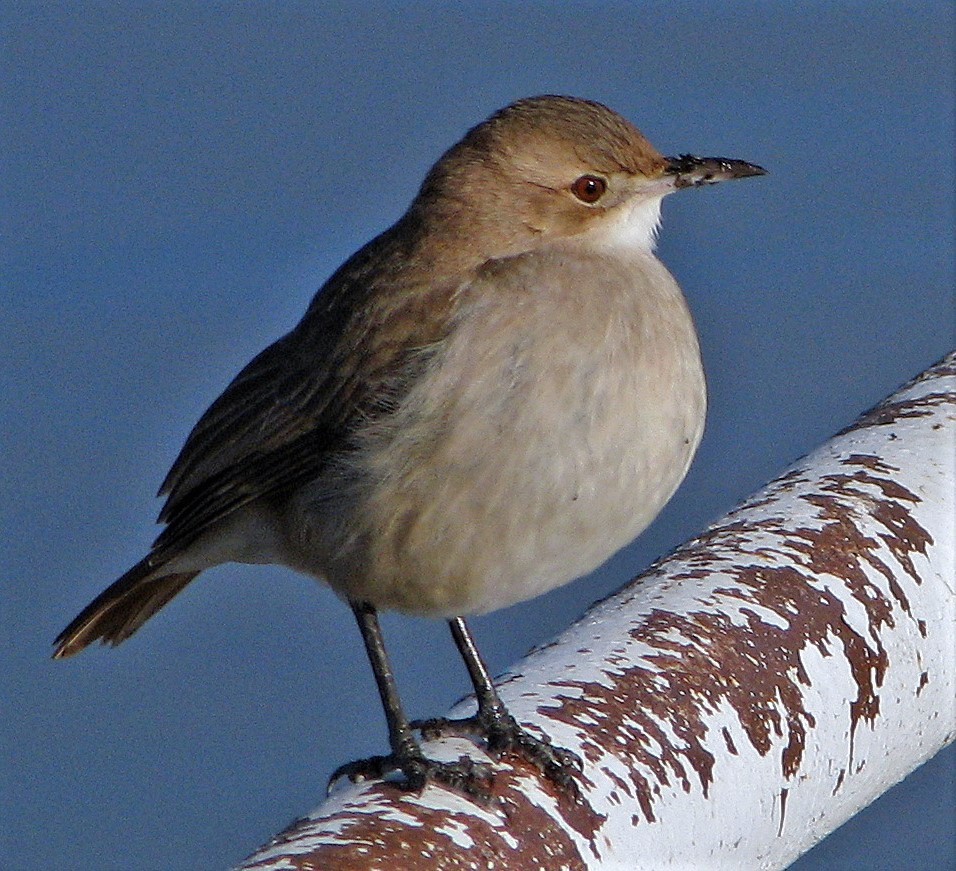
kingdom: Animalia
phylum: Chordata
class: Aves
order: Passeriformes
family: Furnariidae
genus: Furnarius
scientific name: Furnarius rufus
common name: Rufous hornero
